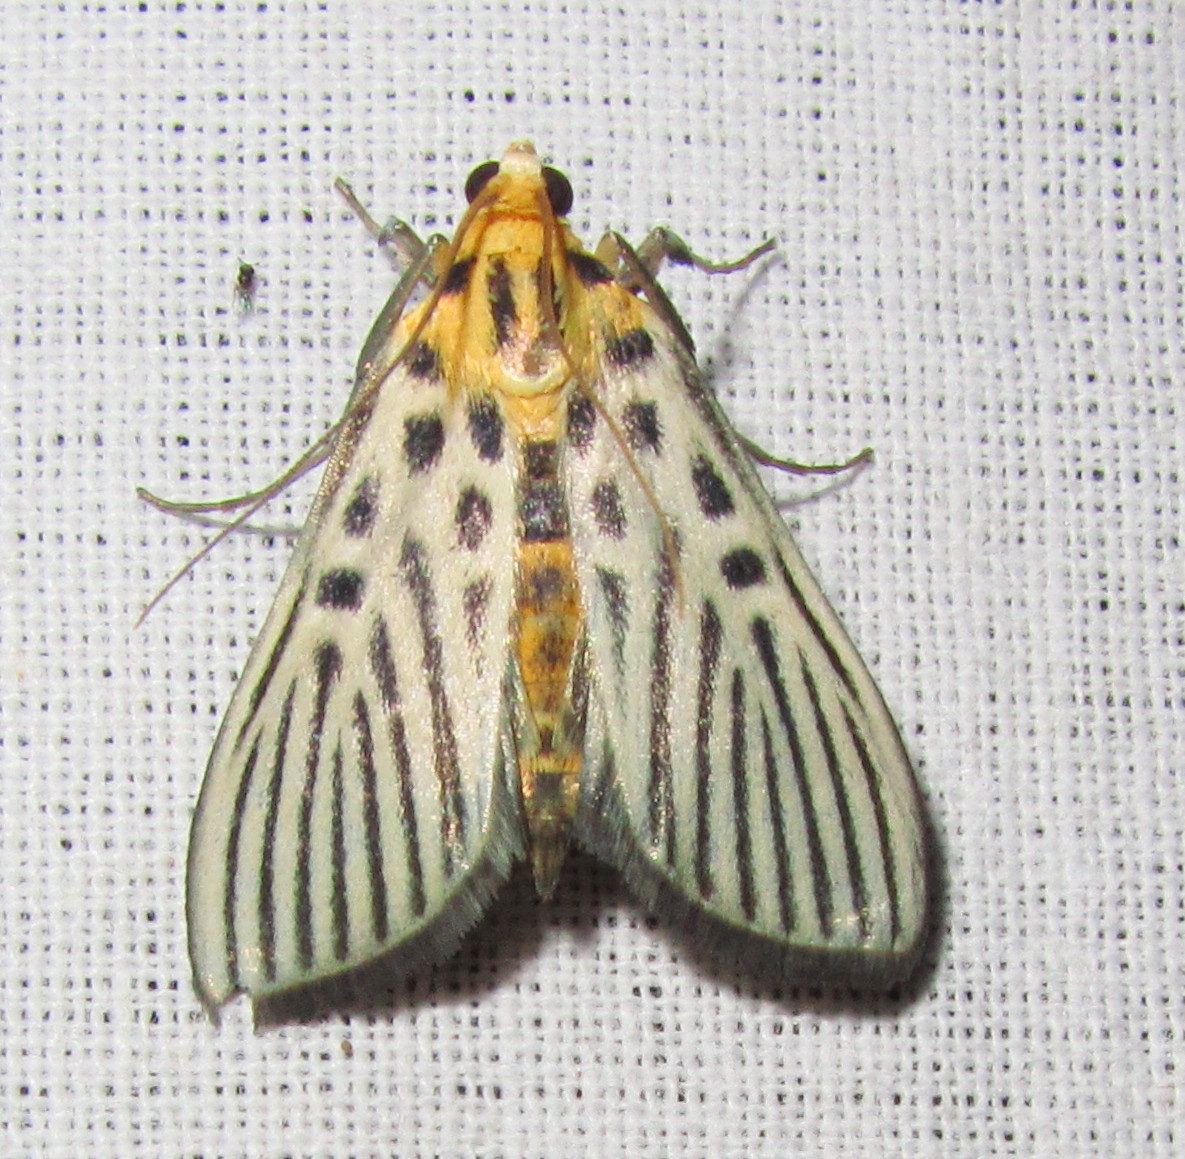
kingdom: Animalia
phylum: Arthropoda
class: Insecta
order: Lepidoptera
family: Crambidae
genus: Tyspanodes
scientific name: Tyspanodes hypsalis
